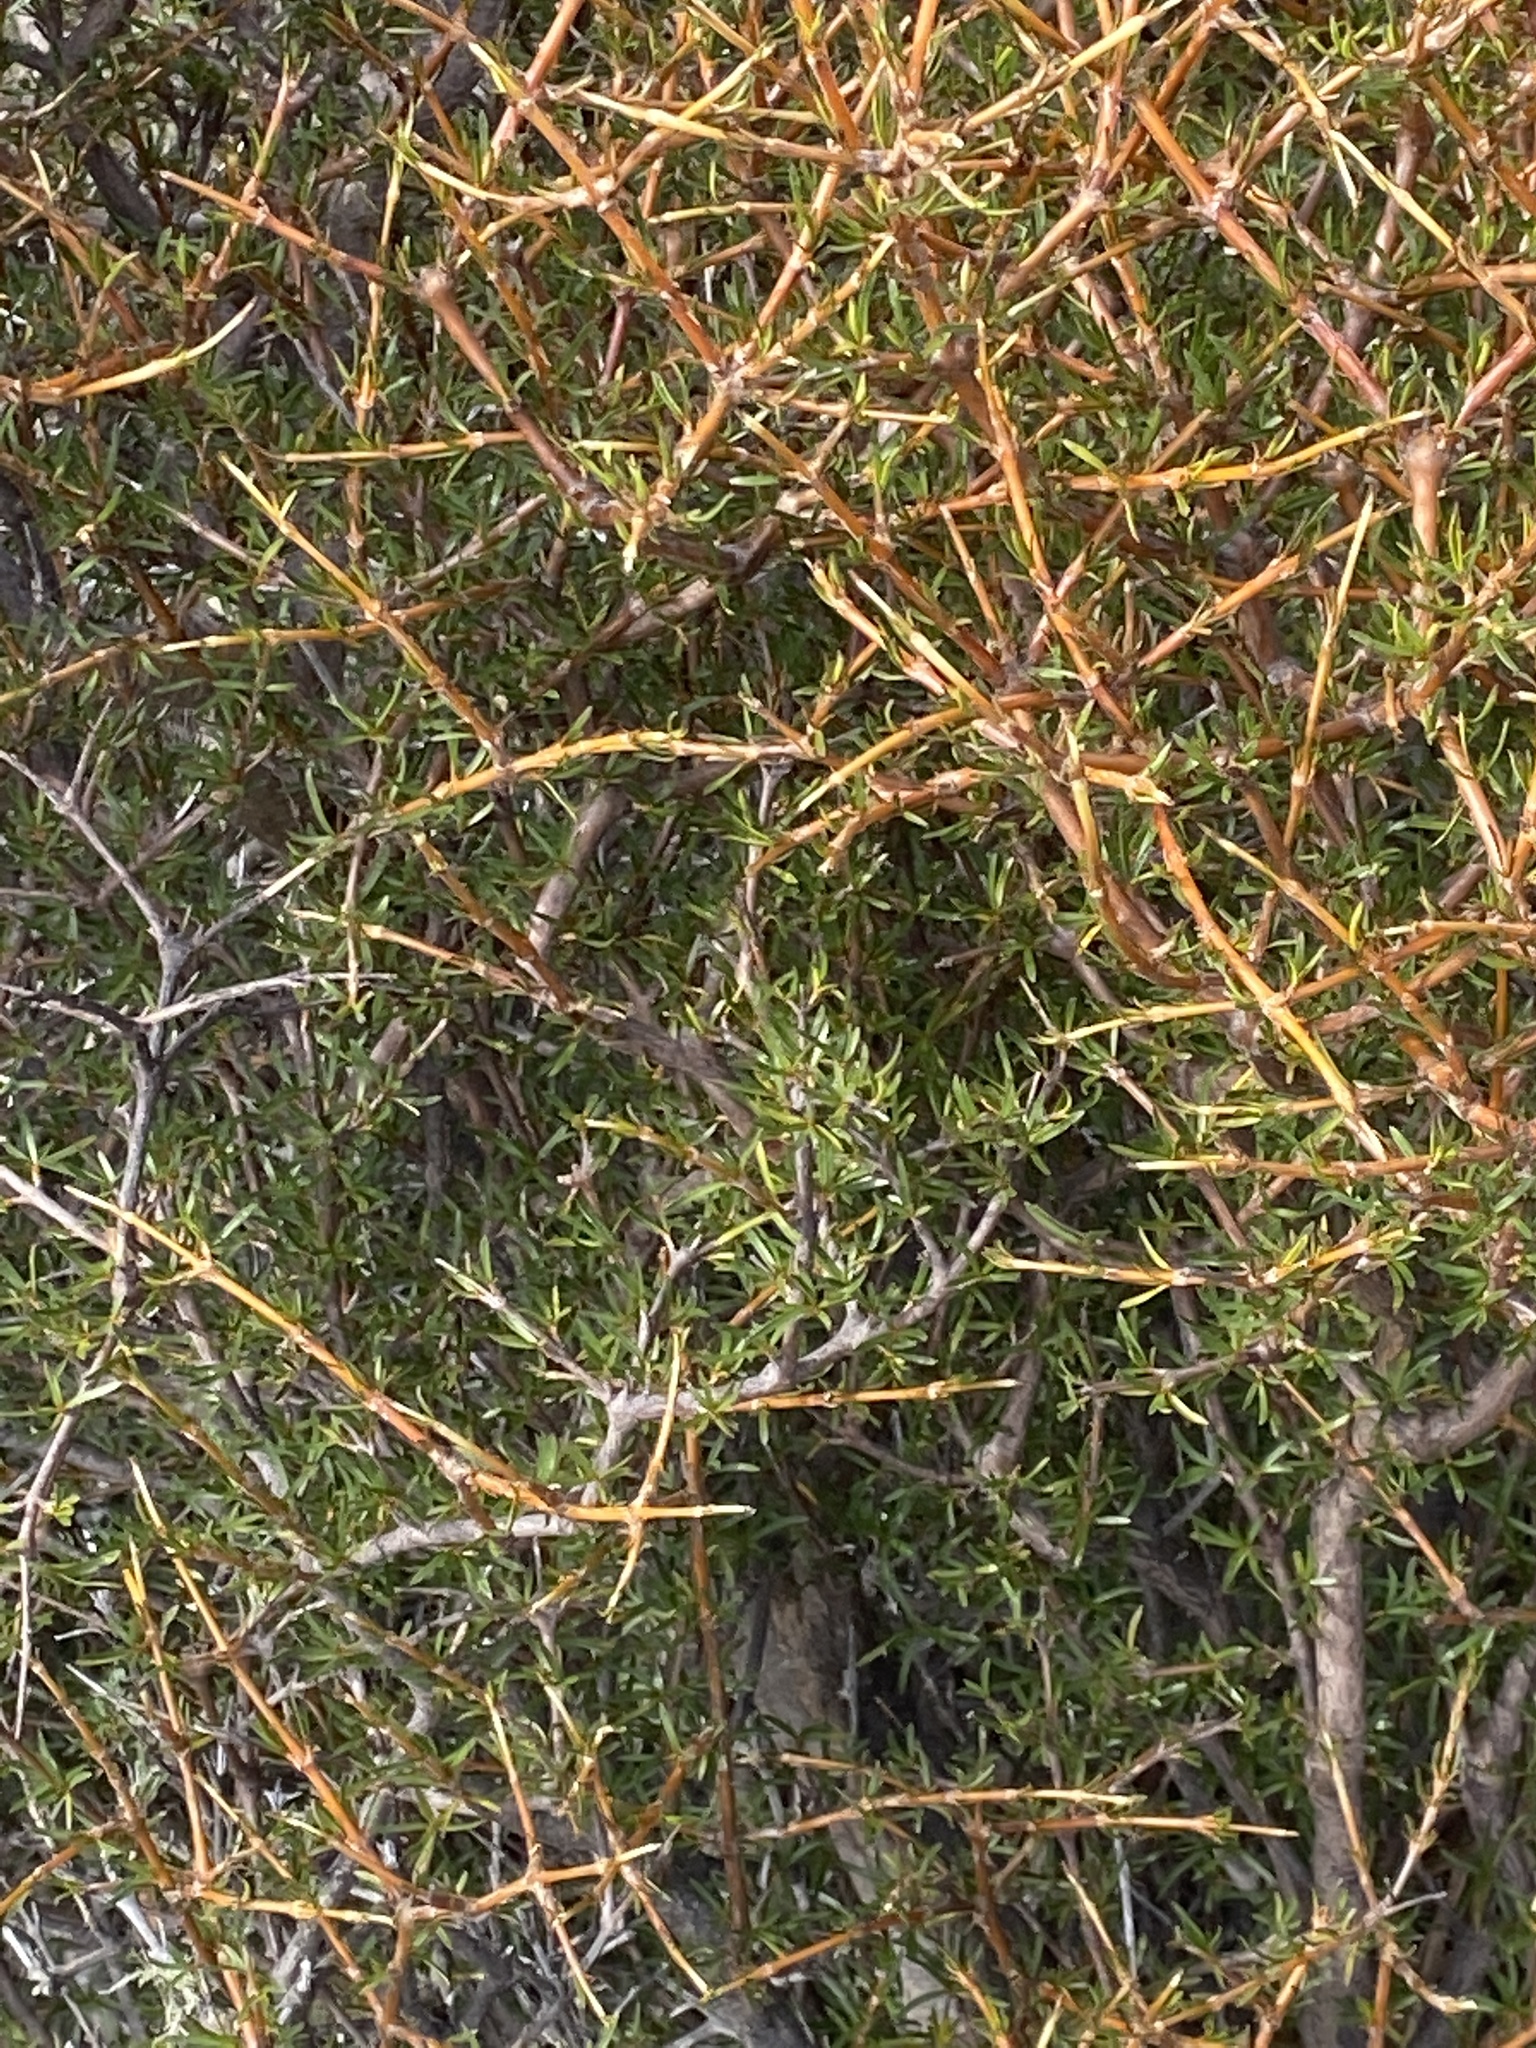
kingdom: Plantae
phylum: Tracheophyta
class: Magnoliopsida
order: Gentianales
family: Rubiaceae
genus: Coprosma
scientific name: Coprosma rugosa
